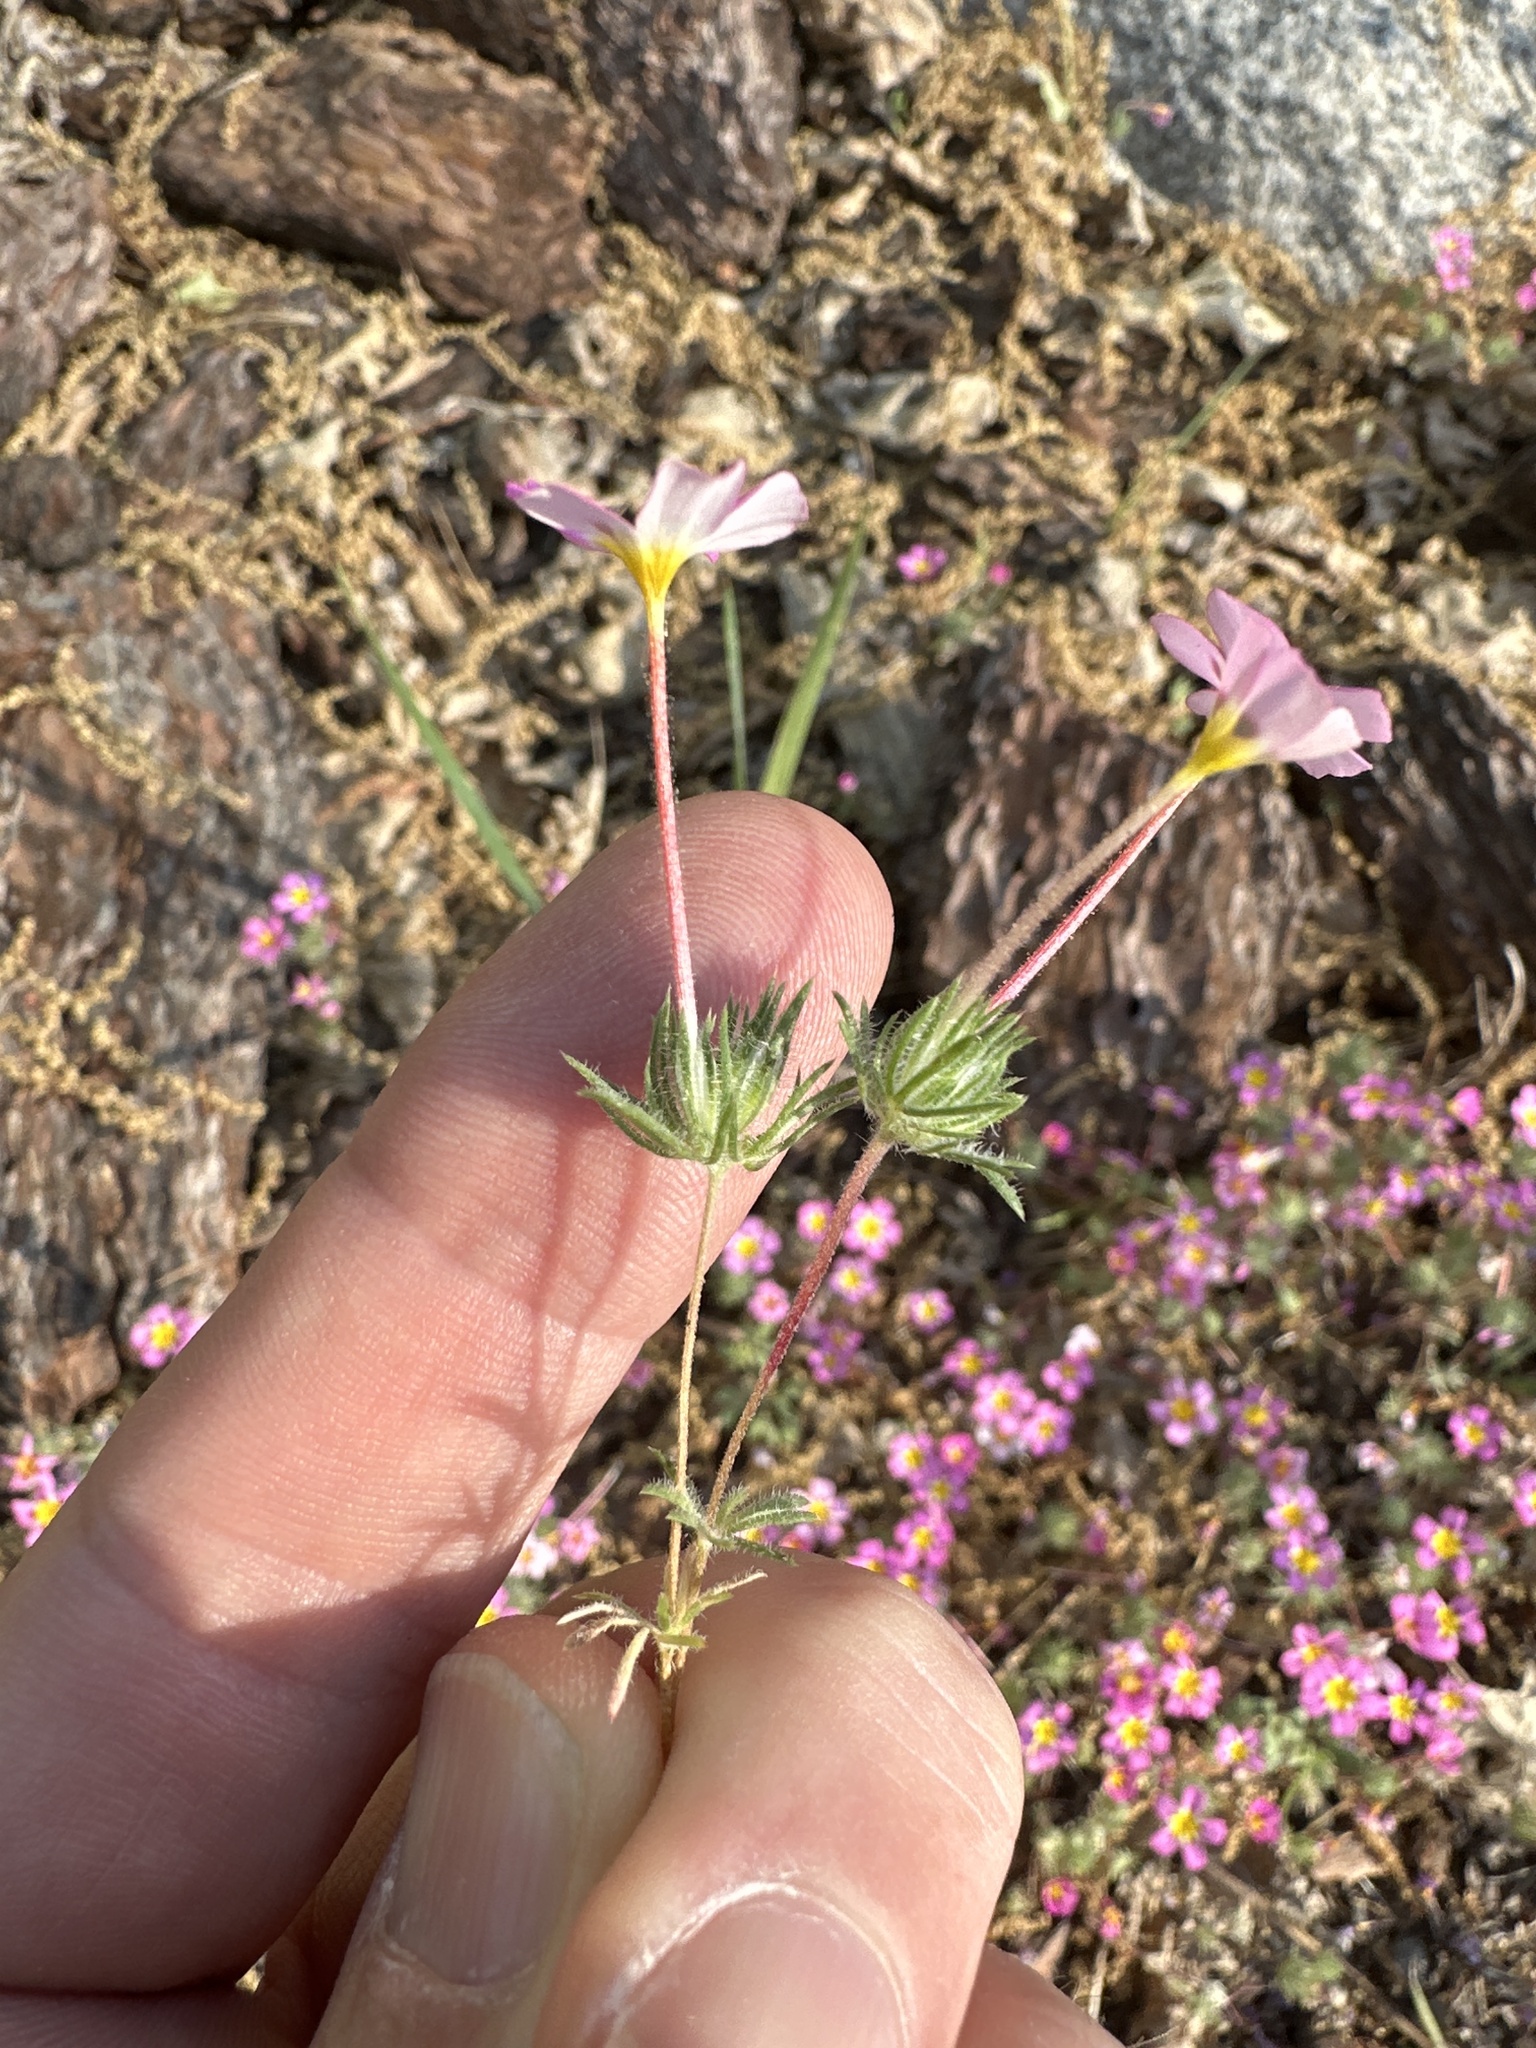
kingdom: Plantae
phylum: Tracheophyta
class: Magnoliopsida
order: Ericales
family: Polemoniaceae
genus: Leptosiphon
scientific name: Leptosiphon ciliatus
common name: Whiskerbrush
